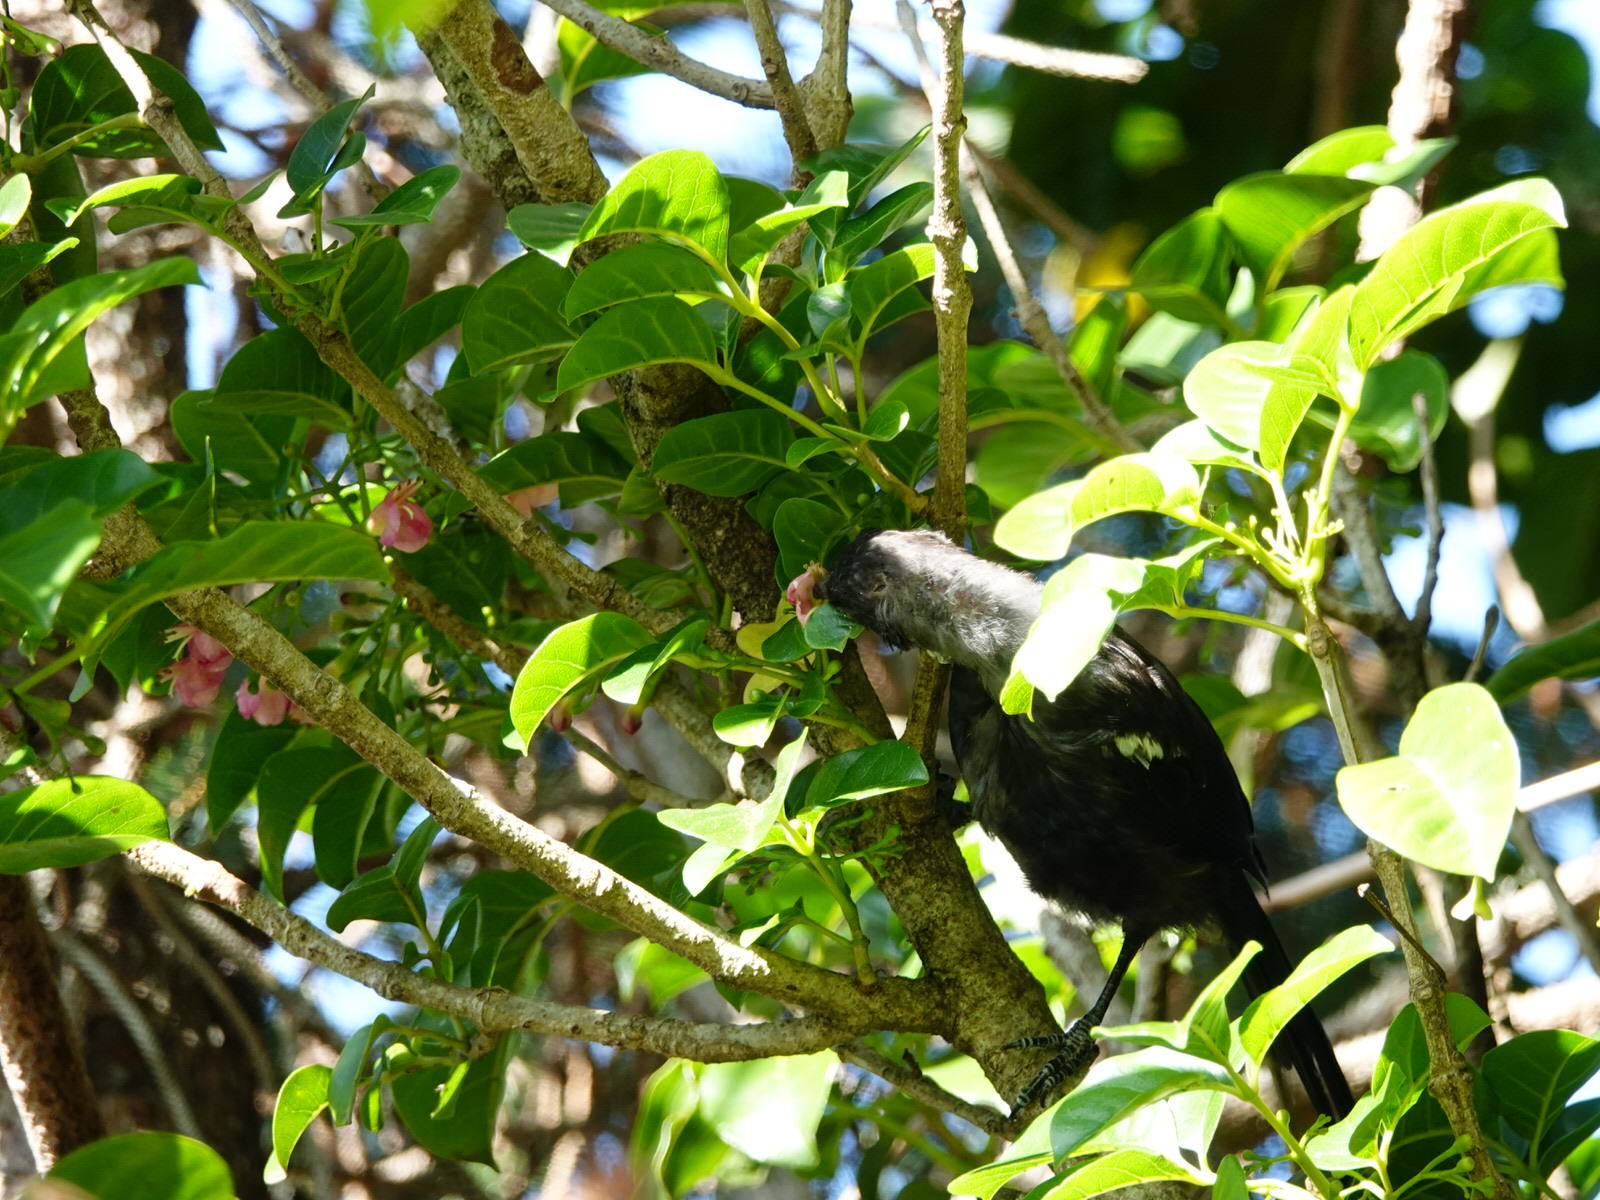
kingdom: Animalia
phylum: Chordata
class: Aves
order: Passeriformes
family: Meliphagidae
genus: Prosthemadera
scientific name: Prosthemadera novaeseelandiae
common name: Tui
